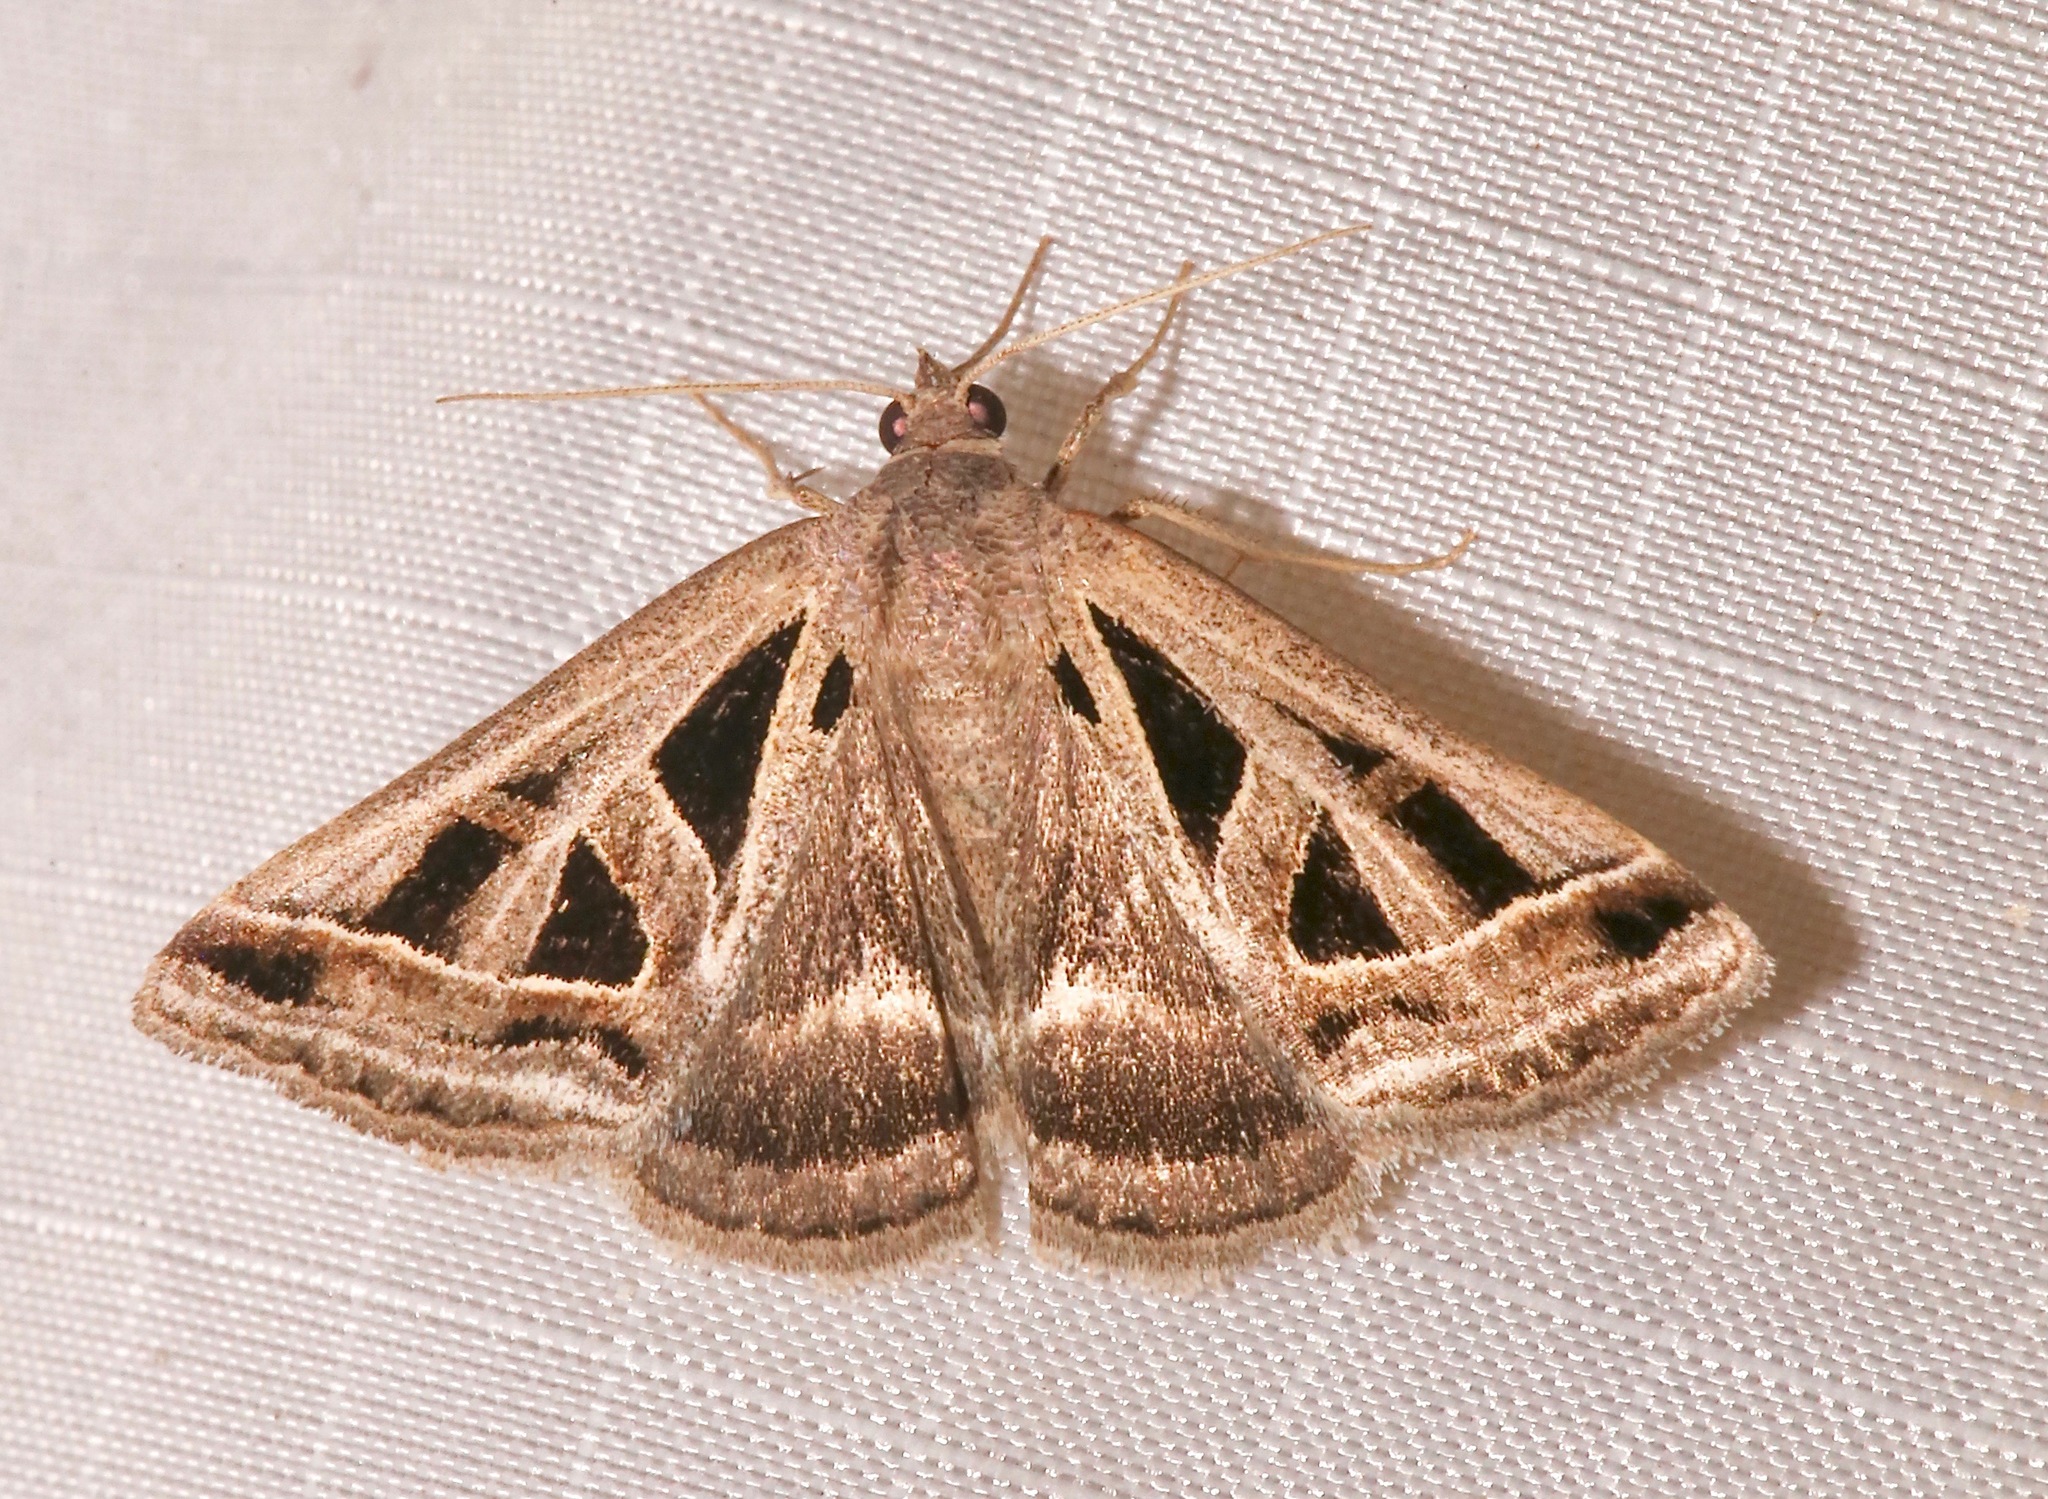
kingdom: Animalia
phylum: Arthropoda
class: Insecta
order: Lepidoptera
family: Erebidae
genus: Callistege
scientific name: Callistege diagonalis
